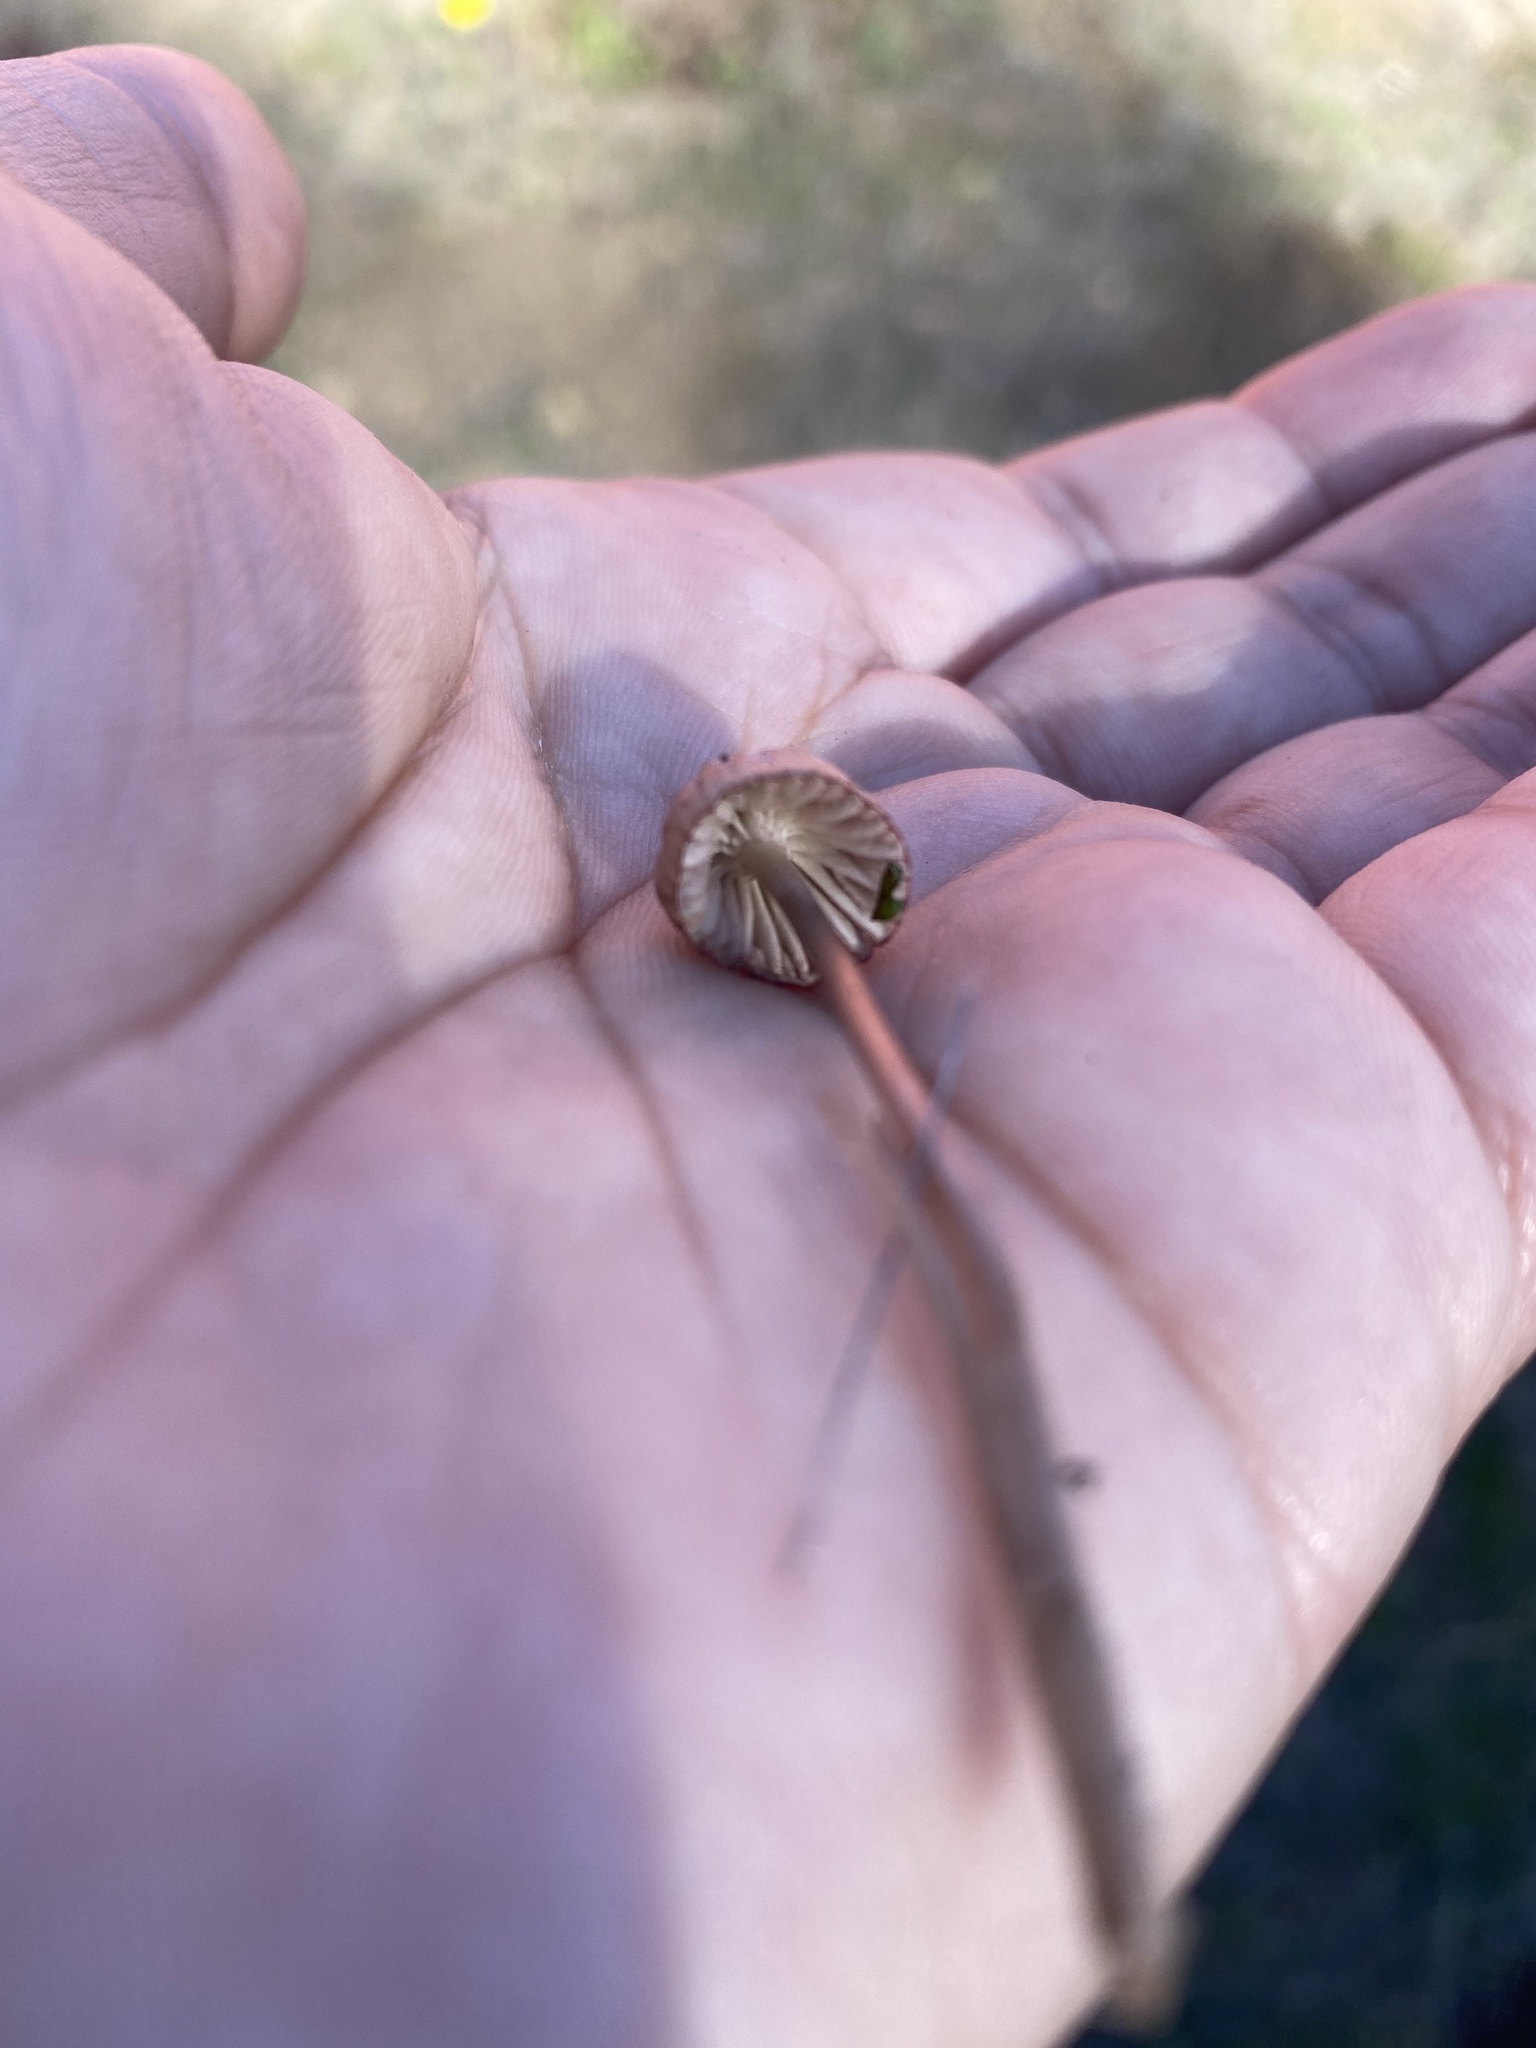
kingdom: Fungi
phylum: Basidiomycota
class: Agaricomycetes
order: Agaricales
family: Mycenaceae
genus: Mycena
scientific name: Mycena capillaripes
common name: Pinkedge bonnet
